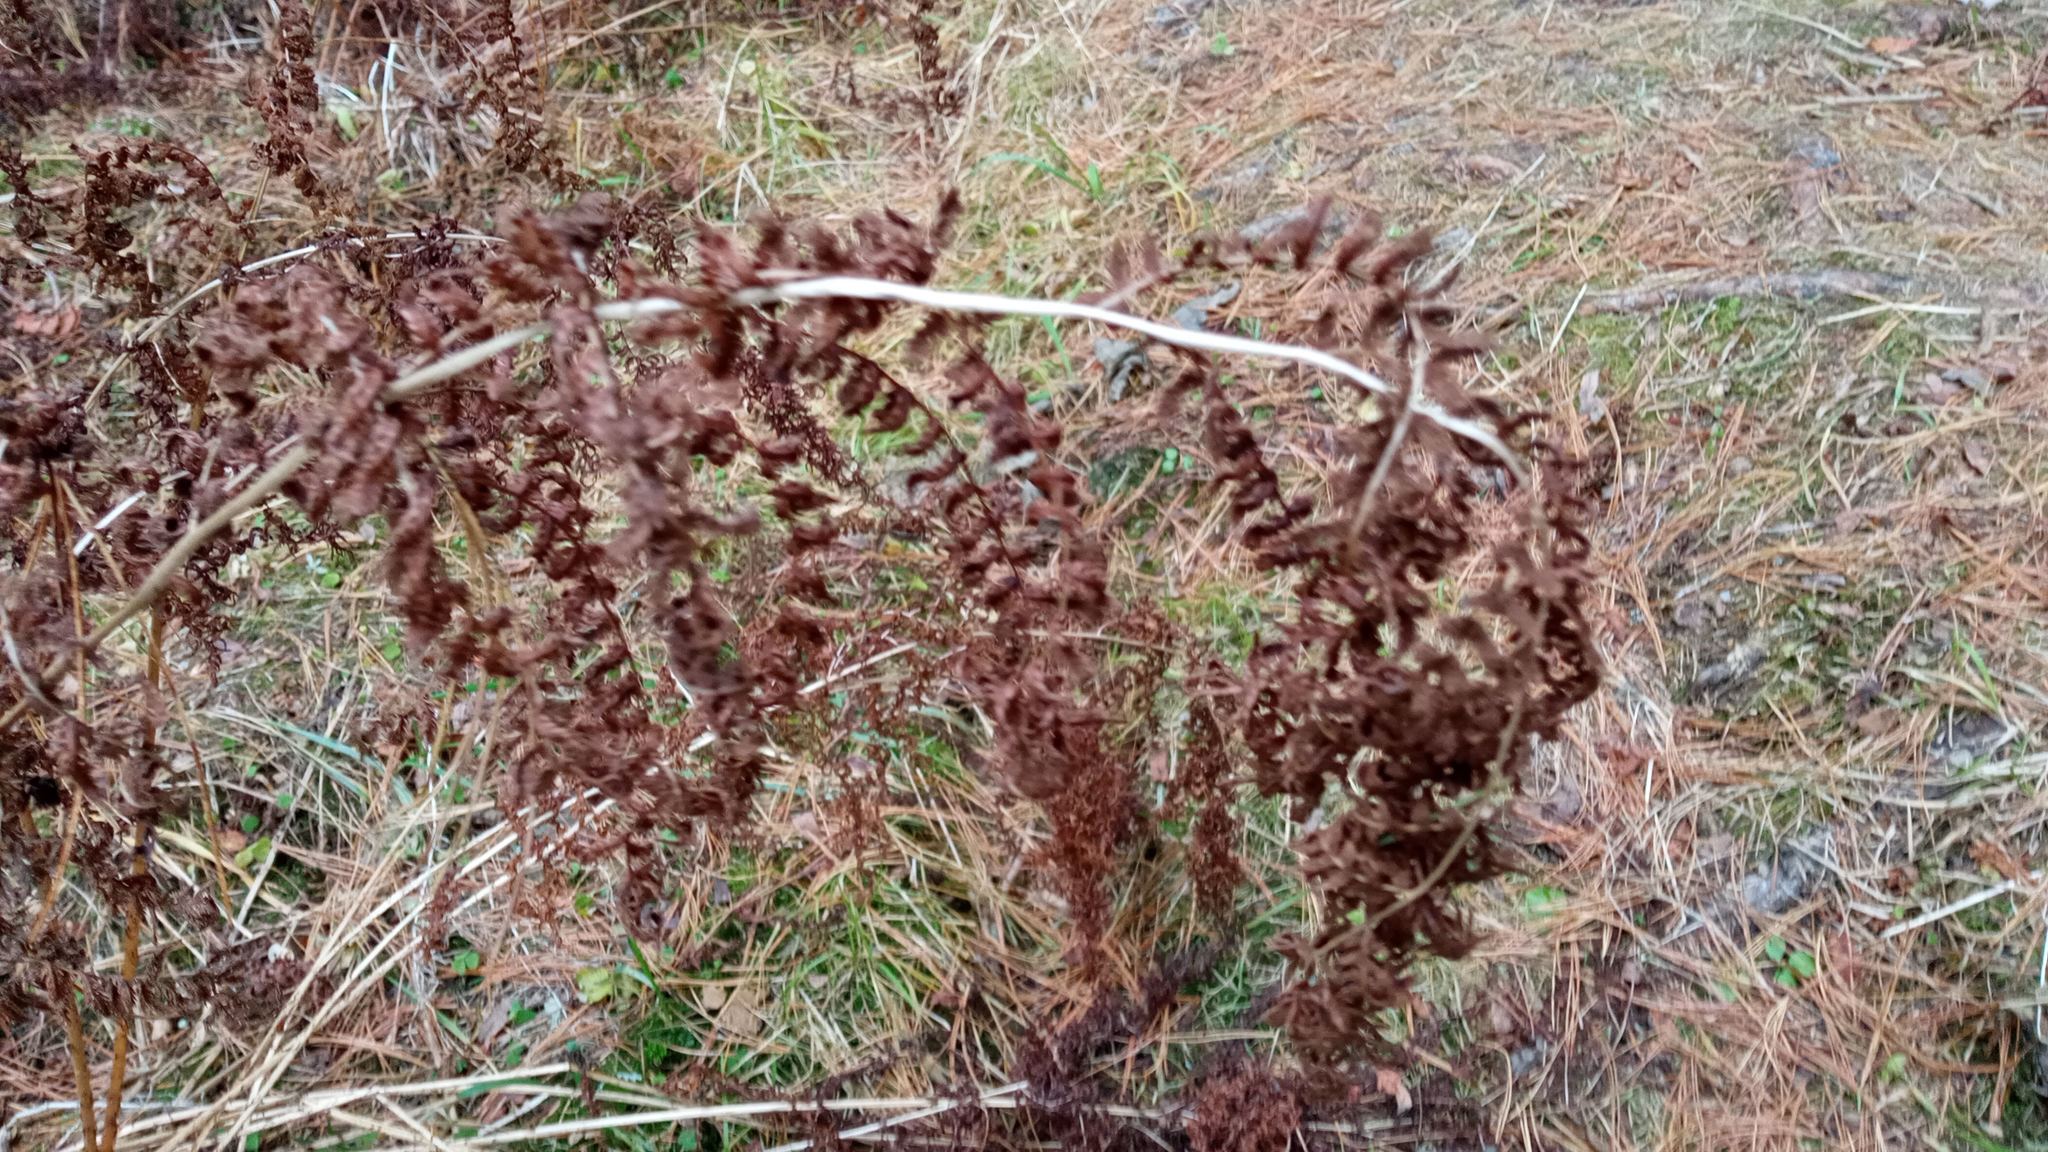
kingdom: Plantae
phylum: Tracheophyta
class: Polypodiopsida
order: Polypodiales
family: Athyriaceae
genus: Athyrium
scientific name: Athyrium filix-femina
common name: Lady fern
